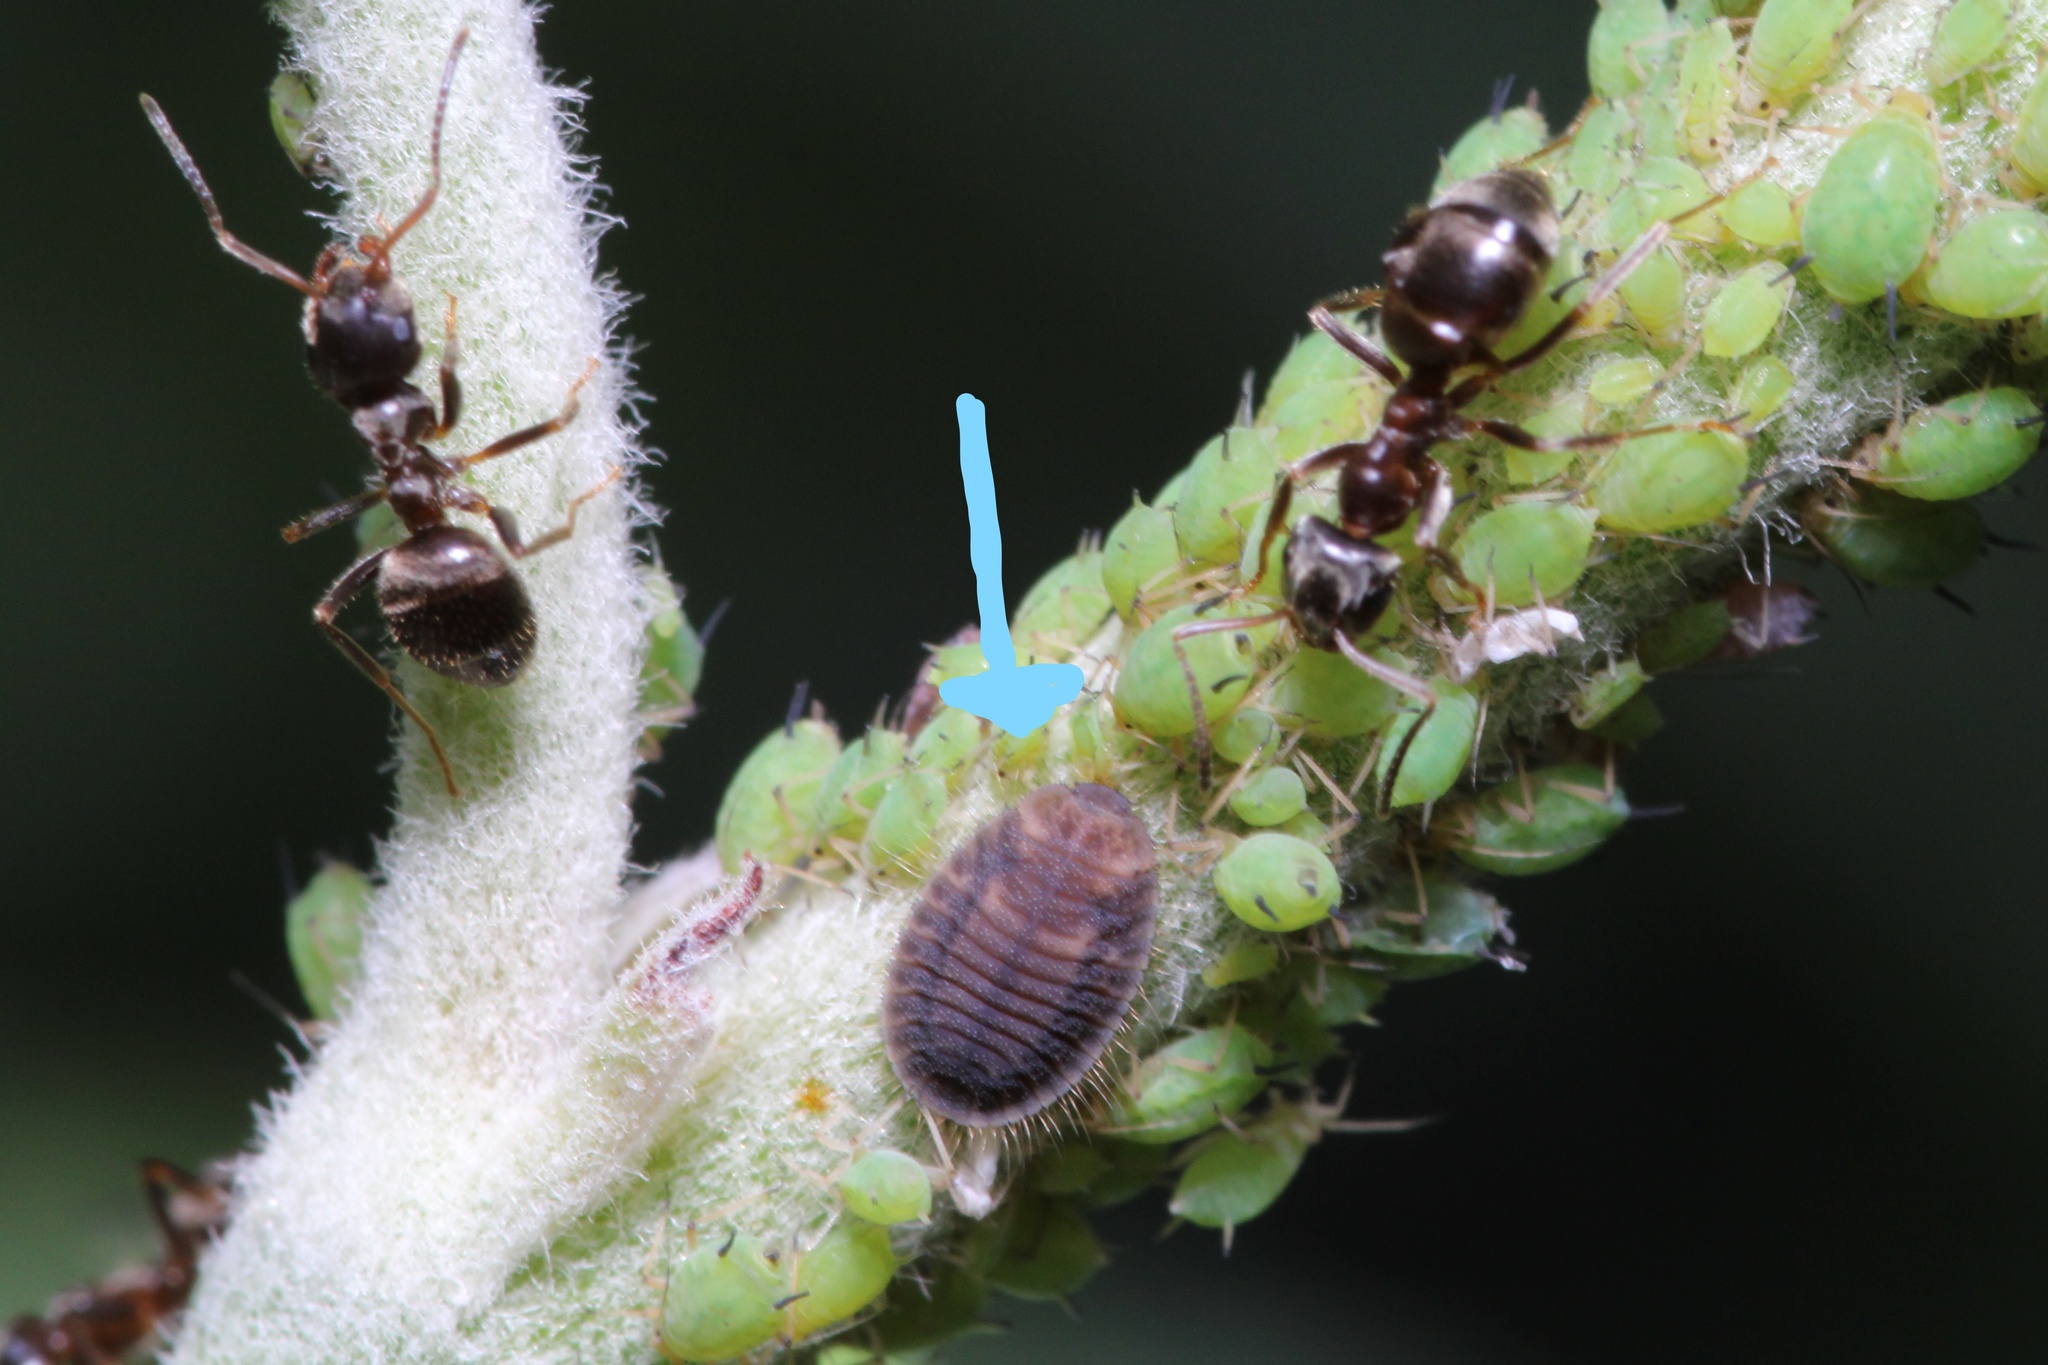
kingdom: Animalia
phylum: Arthropoda
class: Insecta
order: Coleoptera
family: Coccinellidae
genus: Platynaspis
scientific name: Platynaspis luteorubra
